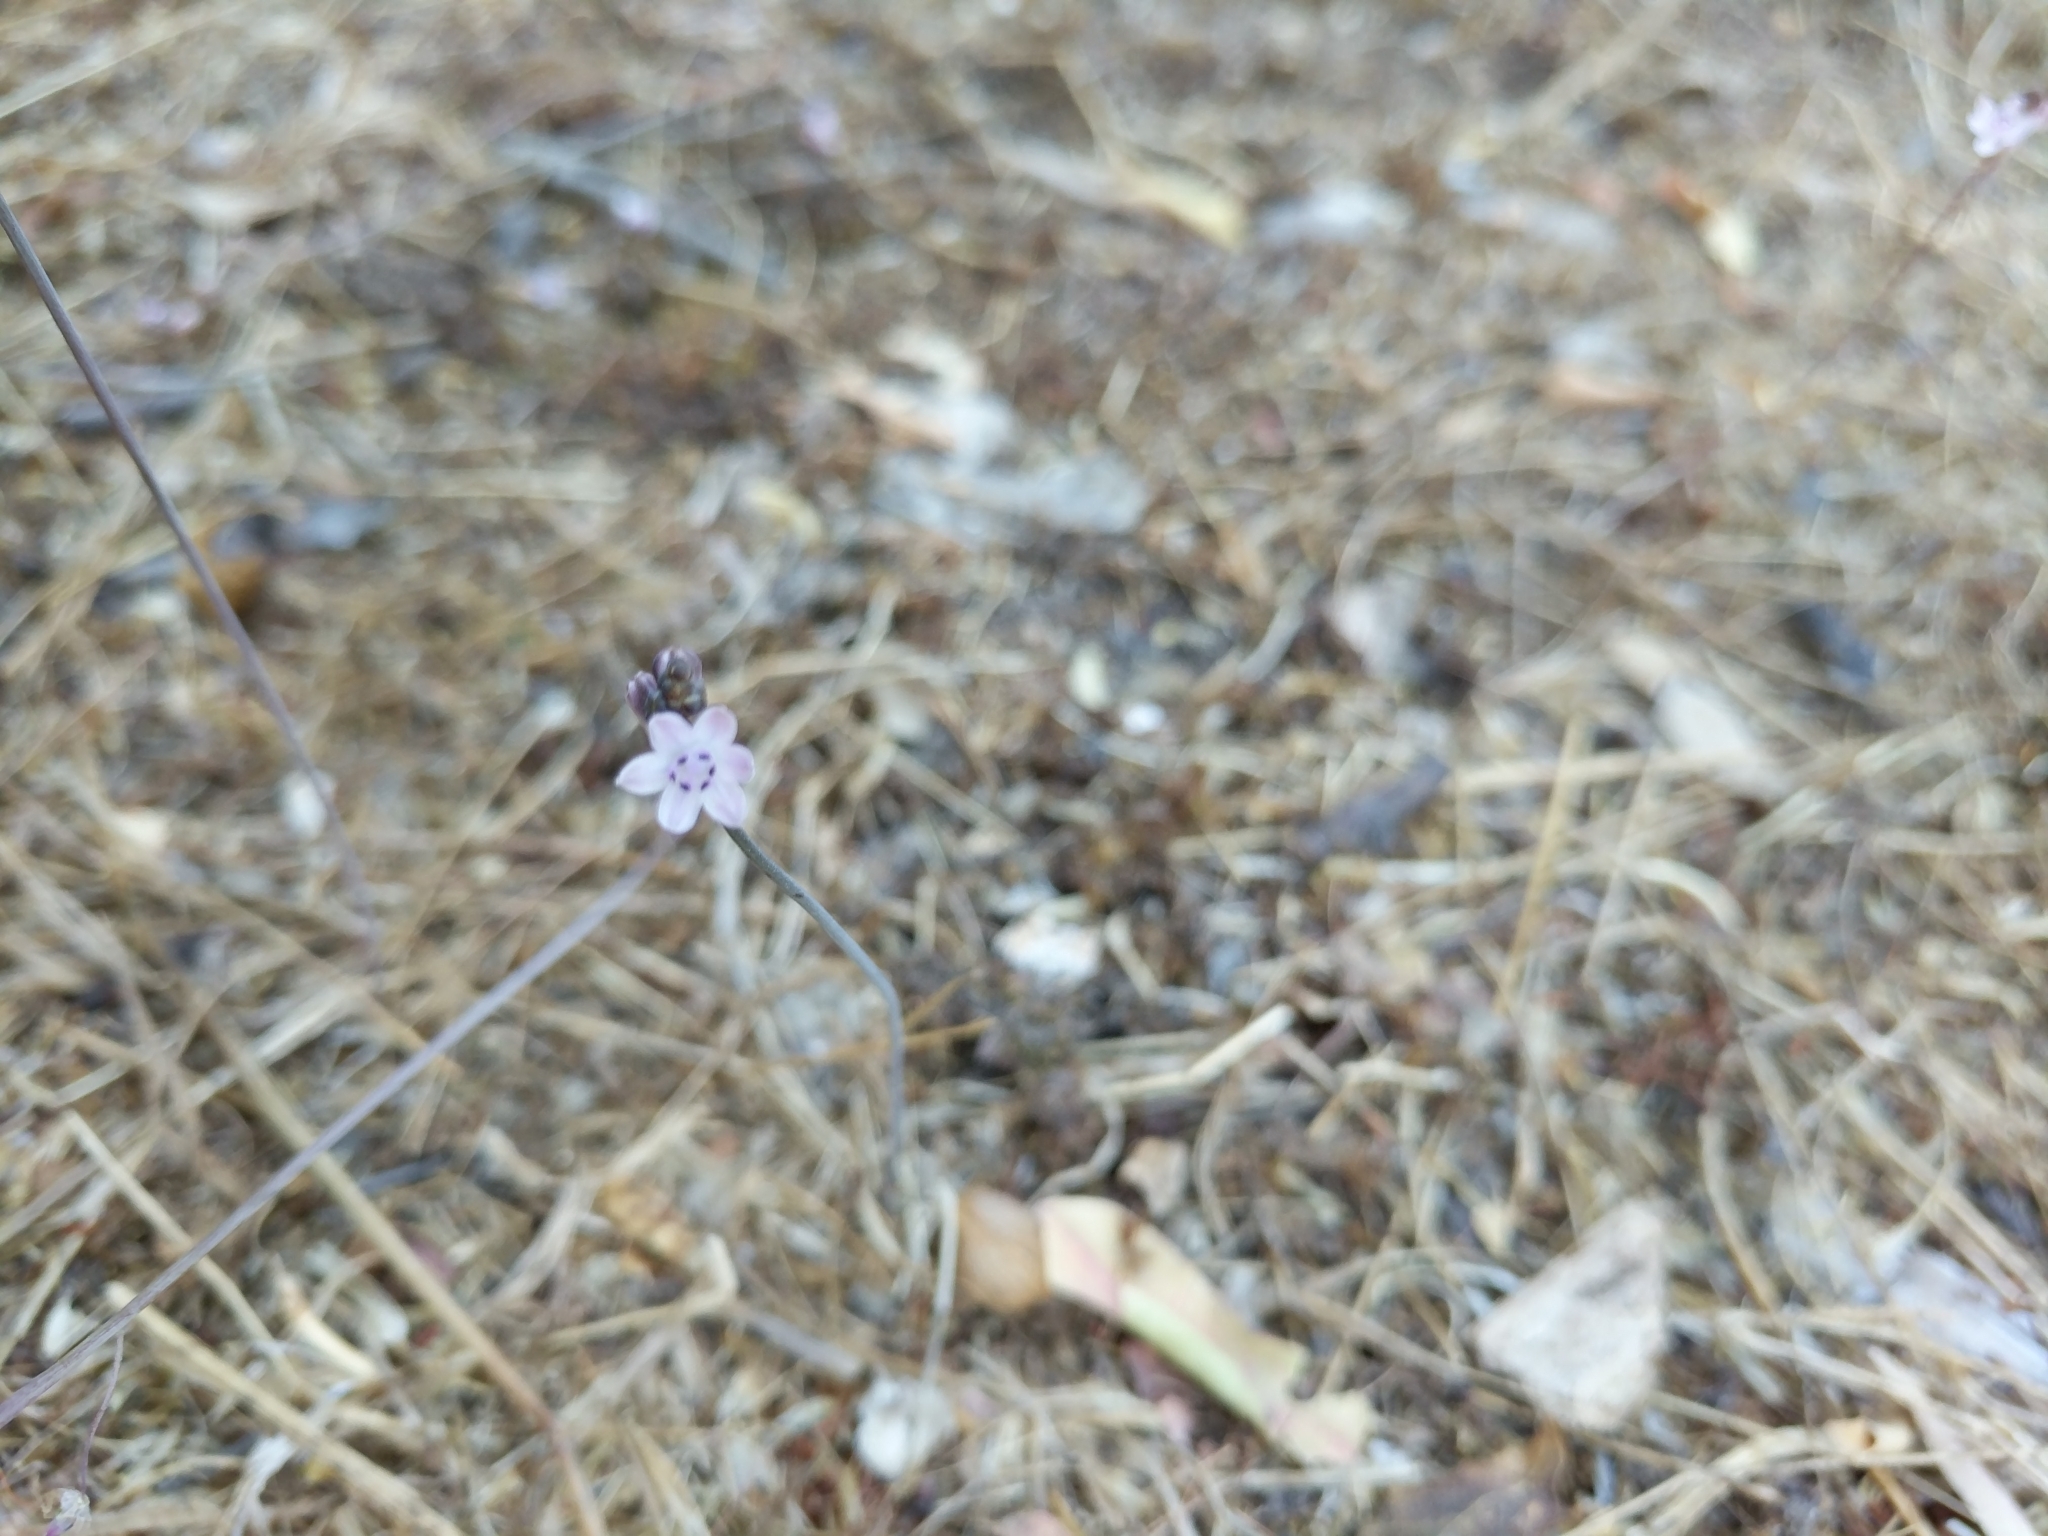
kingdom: Plantae
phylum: Tracheophyta
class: Liliopsida
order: Asparagales
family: Asparagaceae
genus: Prospero
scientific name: Prospero autumnale
